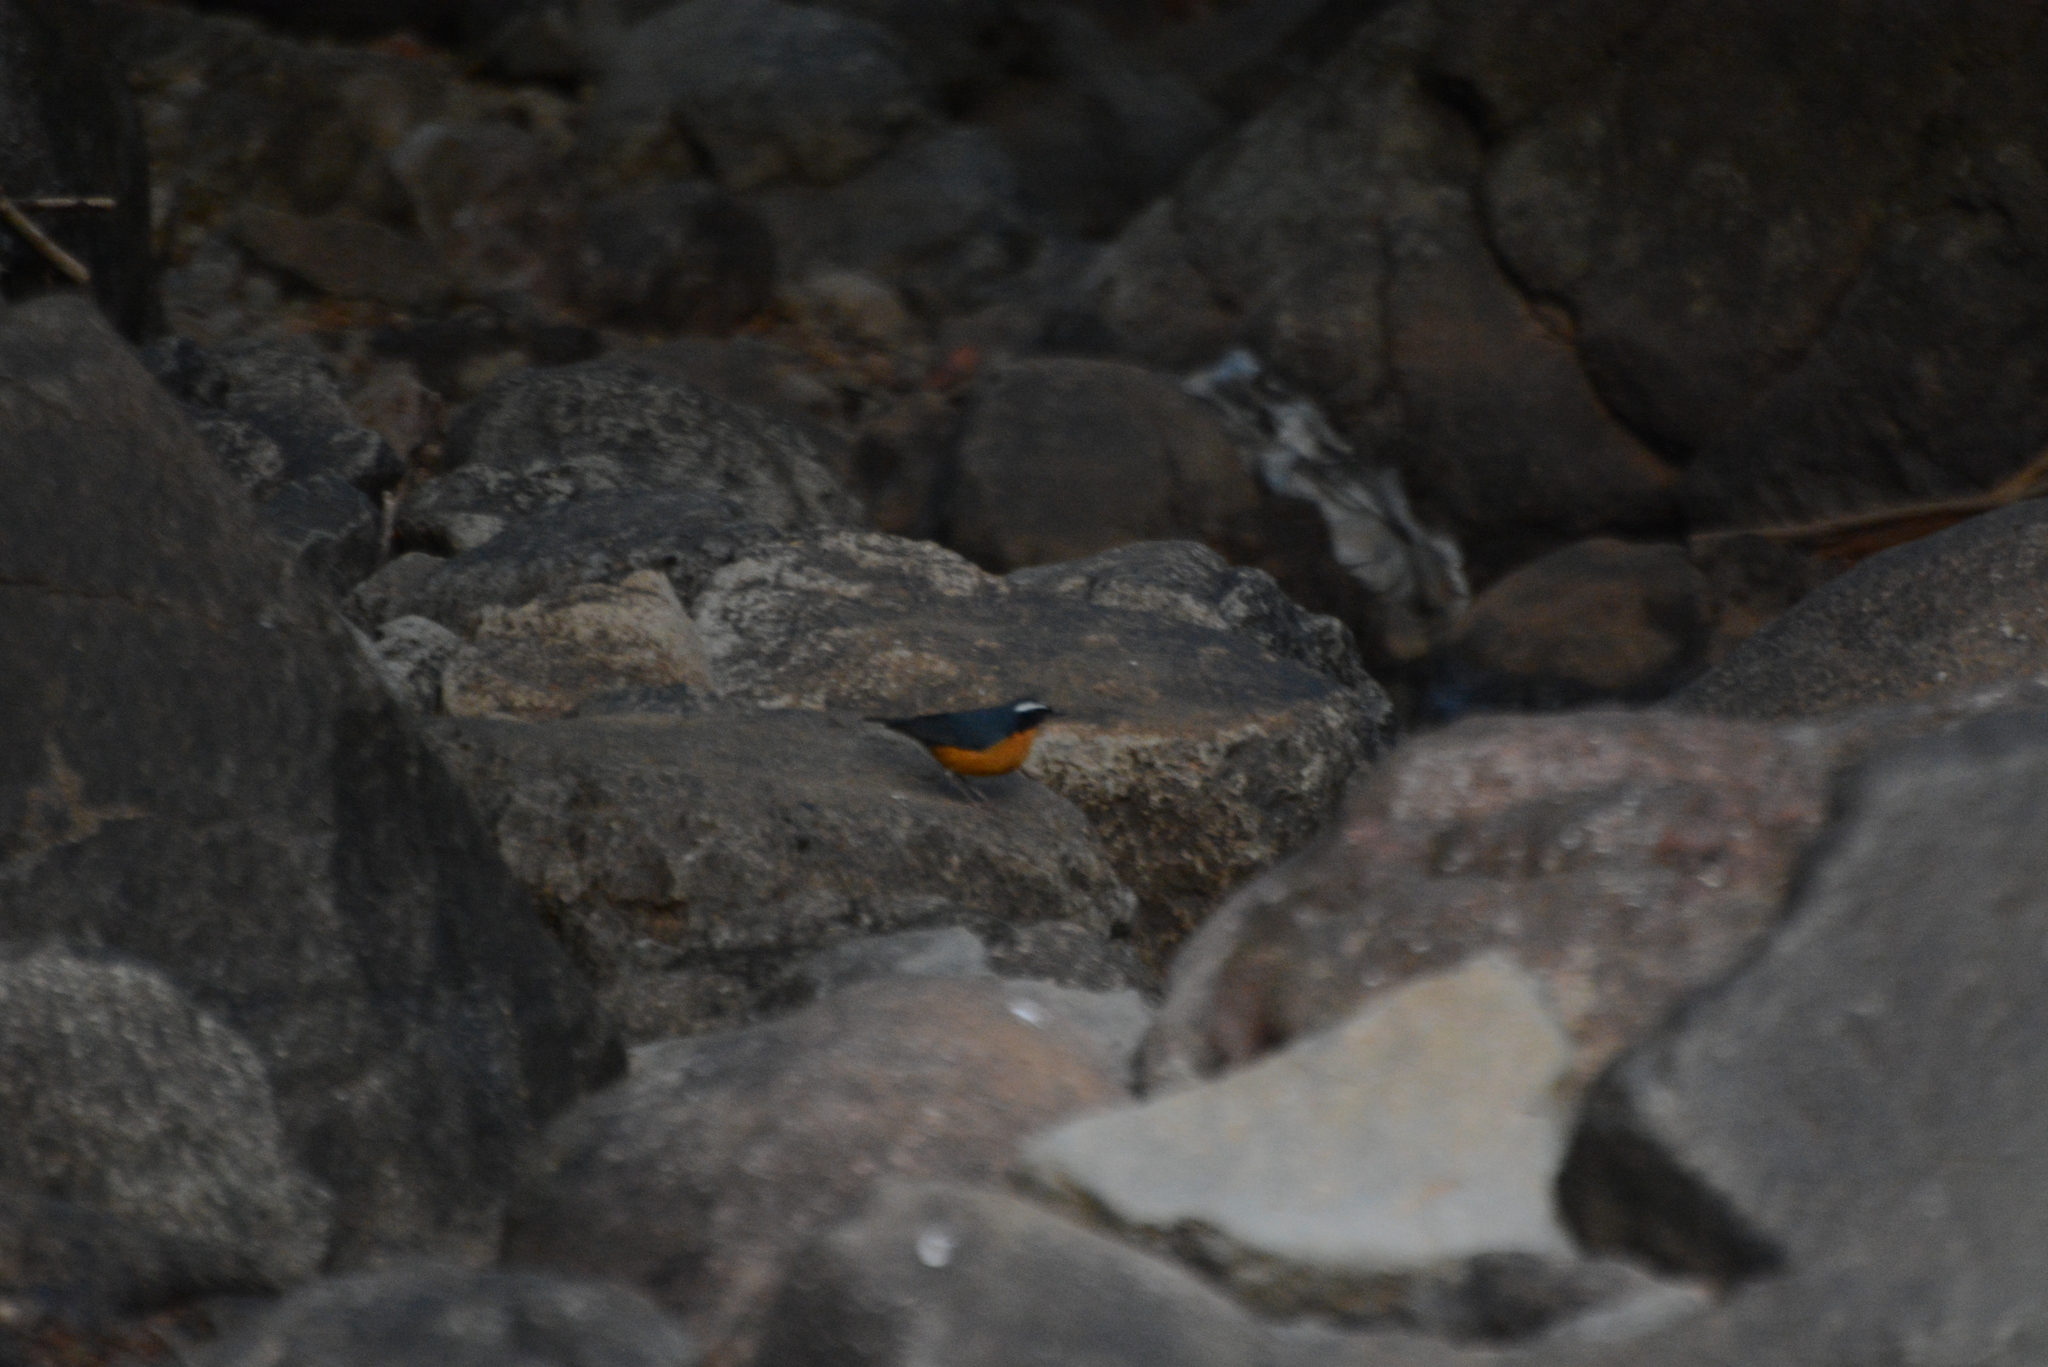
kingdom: Animalia
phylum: Chordata
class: Aves
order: Passeriformes
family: Muscicapidae
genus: Luscinia
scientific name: Luscinia brunnea
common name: Indian blue robin
